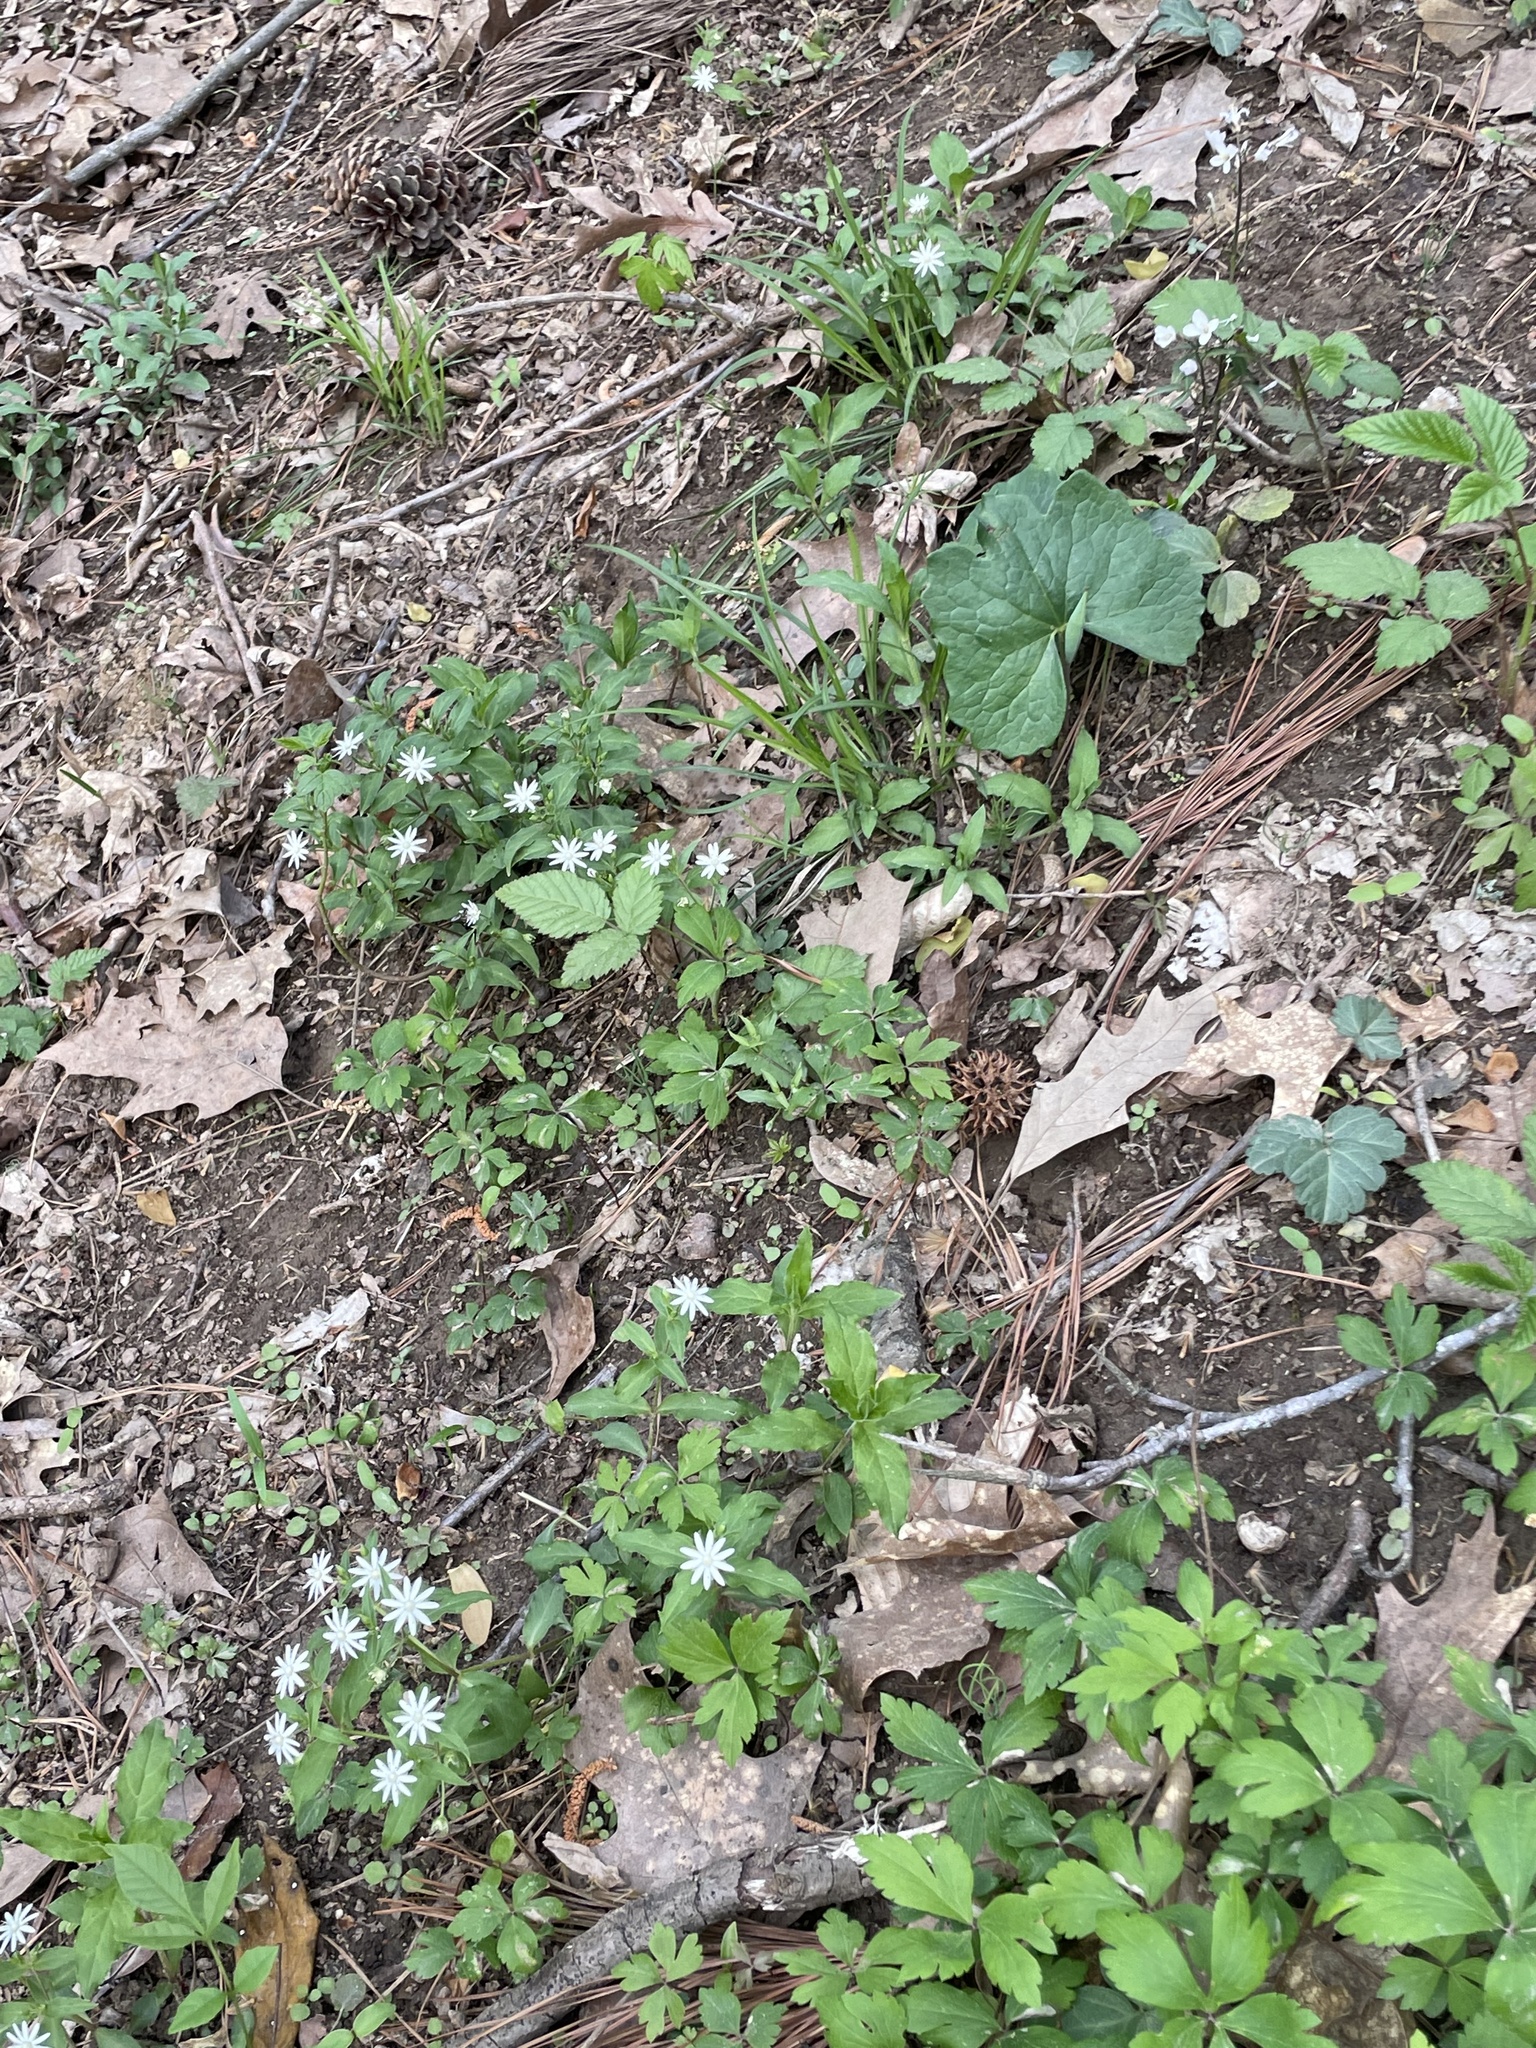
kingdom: Plantae
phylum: Tracheophyta
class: Magnoliopsida
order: Caryophyllales
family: Caryophyllaceae
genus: Stellaria
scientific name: Stellaria pubera
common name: Star chickweed
